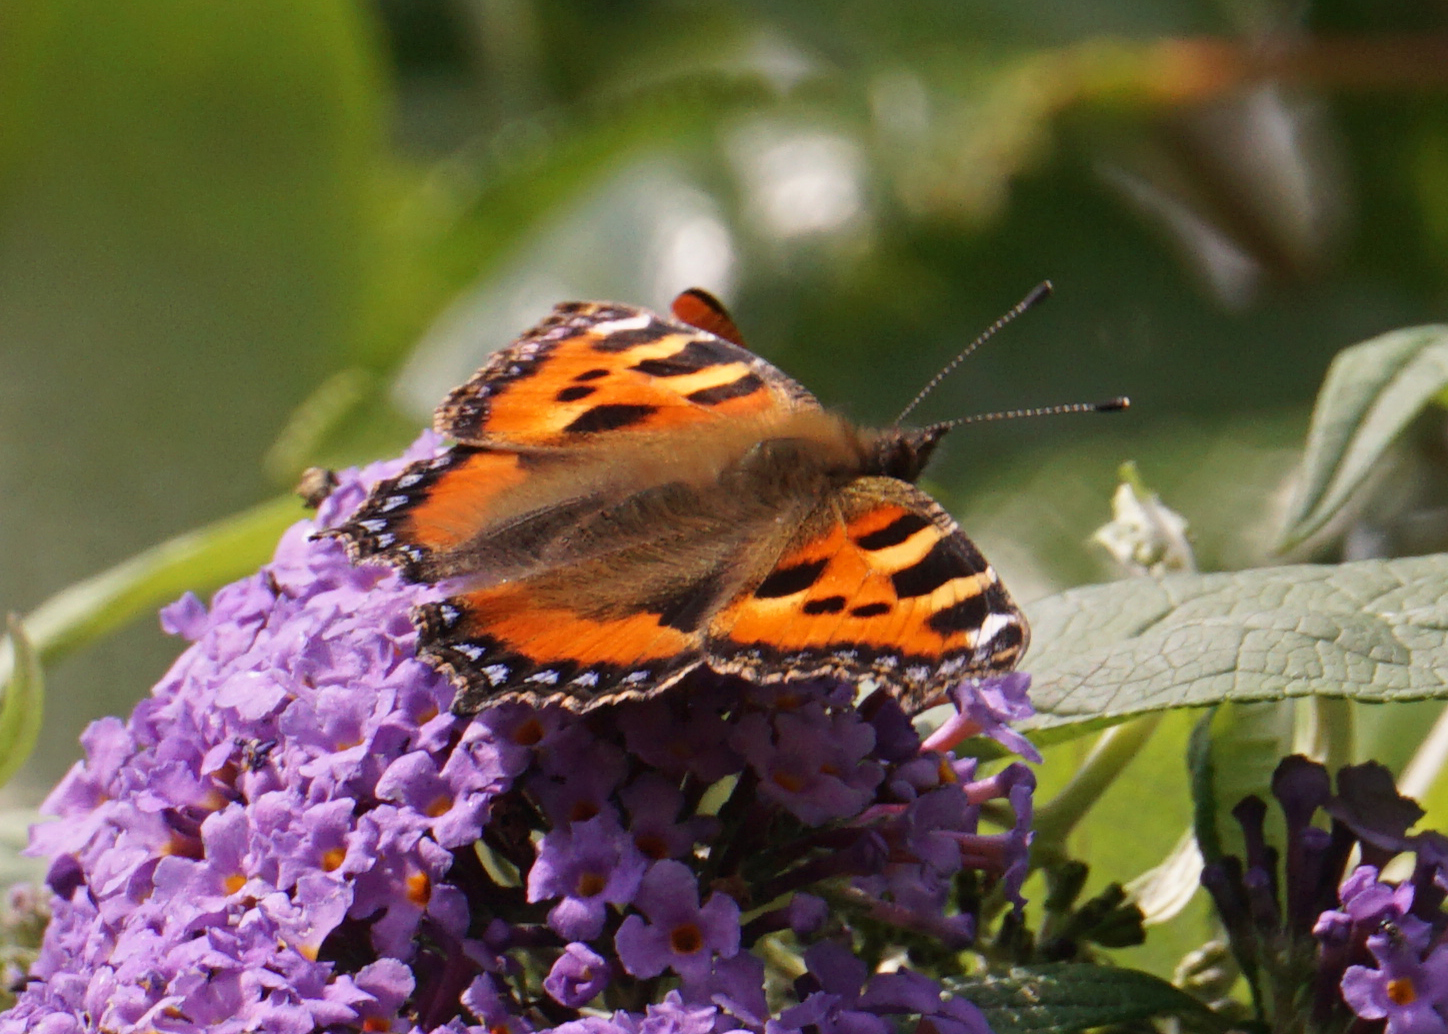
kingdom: Animalia
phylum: Arthropoda
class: Insecta
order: Lepidoptera
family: Nymphalidae
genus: Aglais
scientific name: Aglais urticae
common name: Small tortoiseshell
